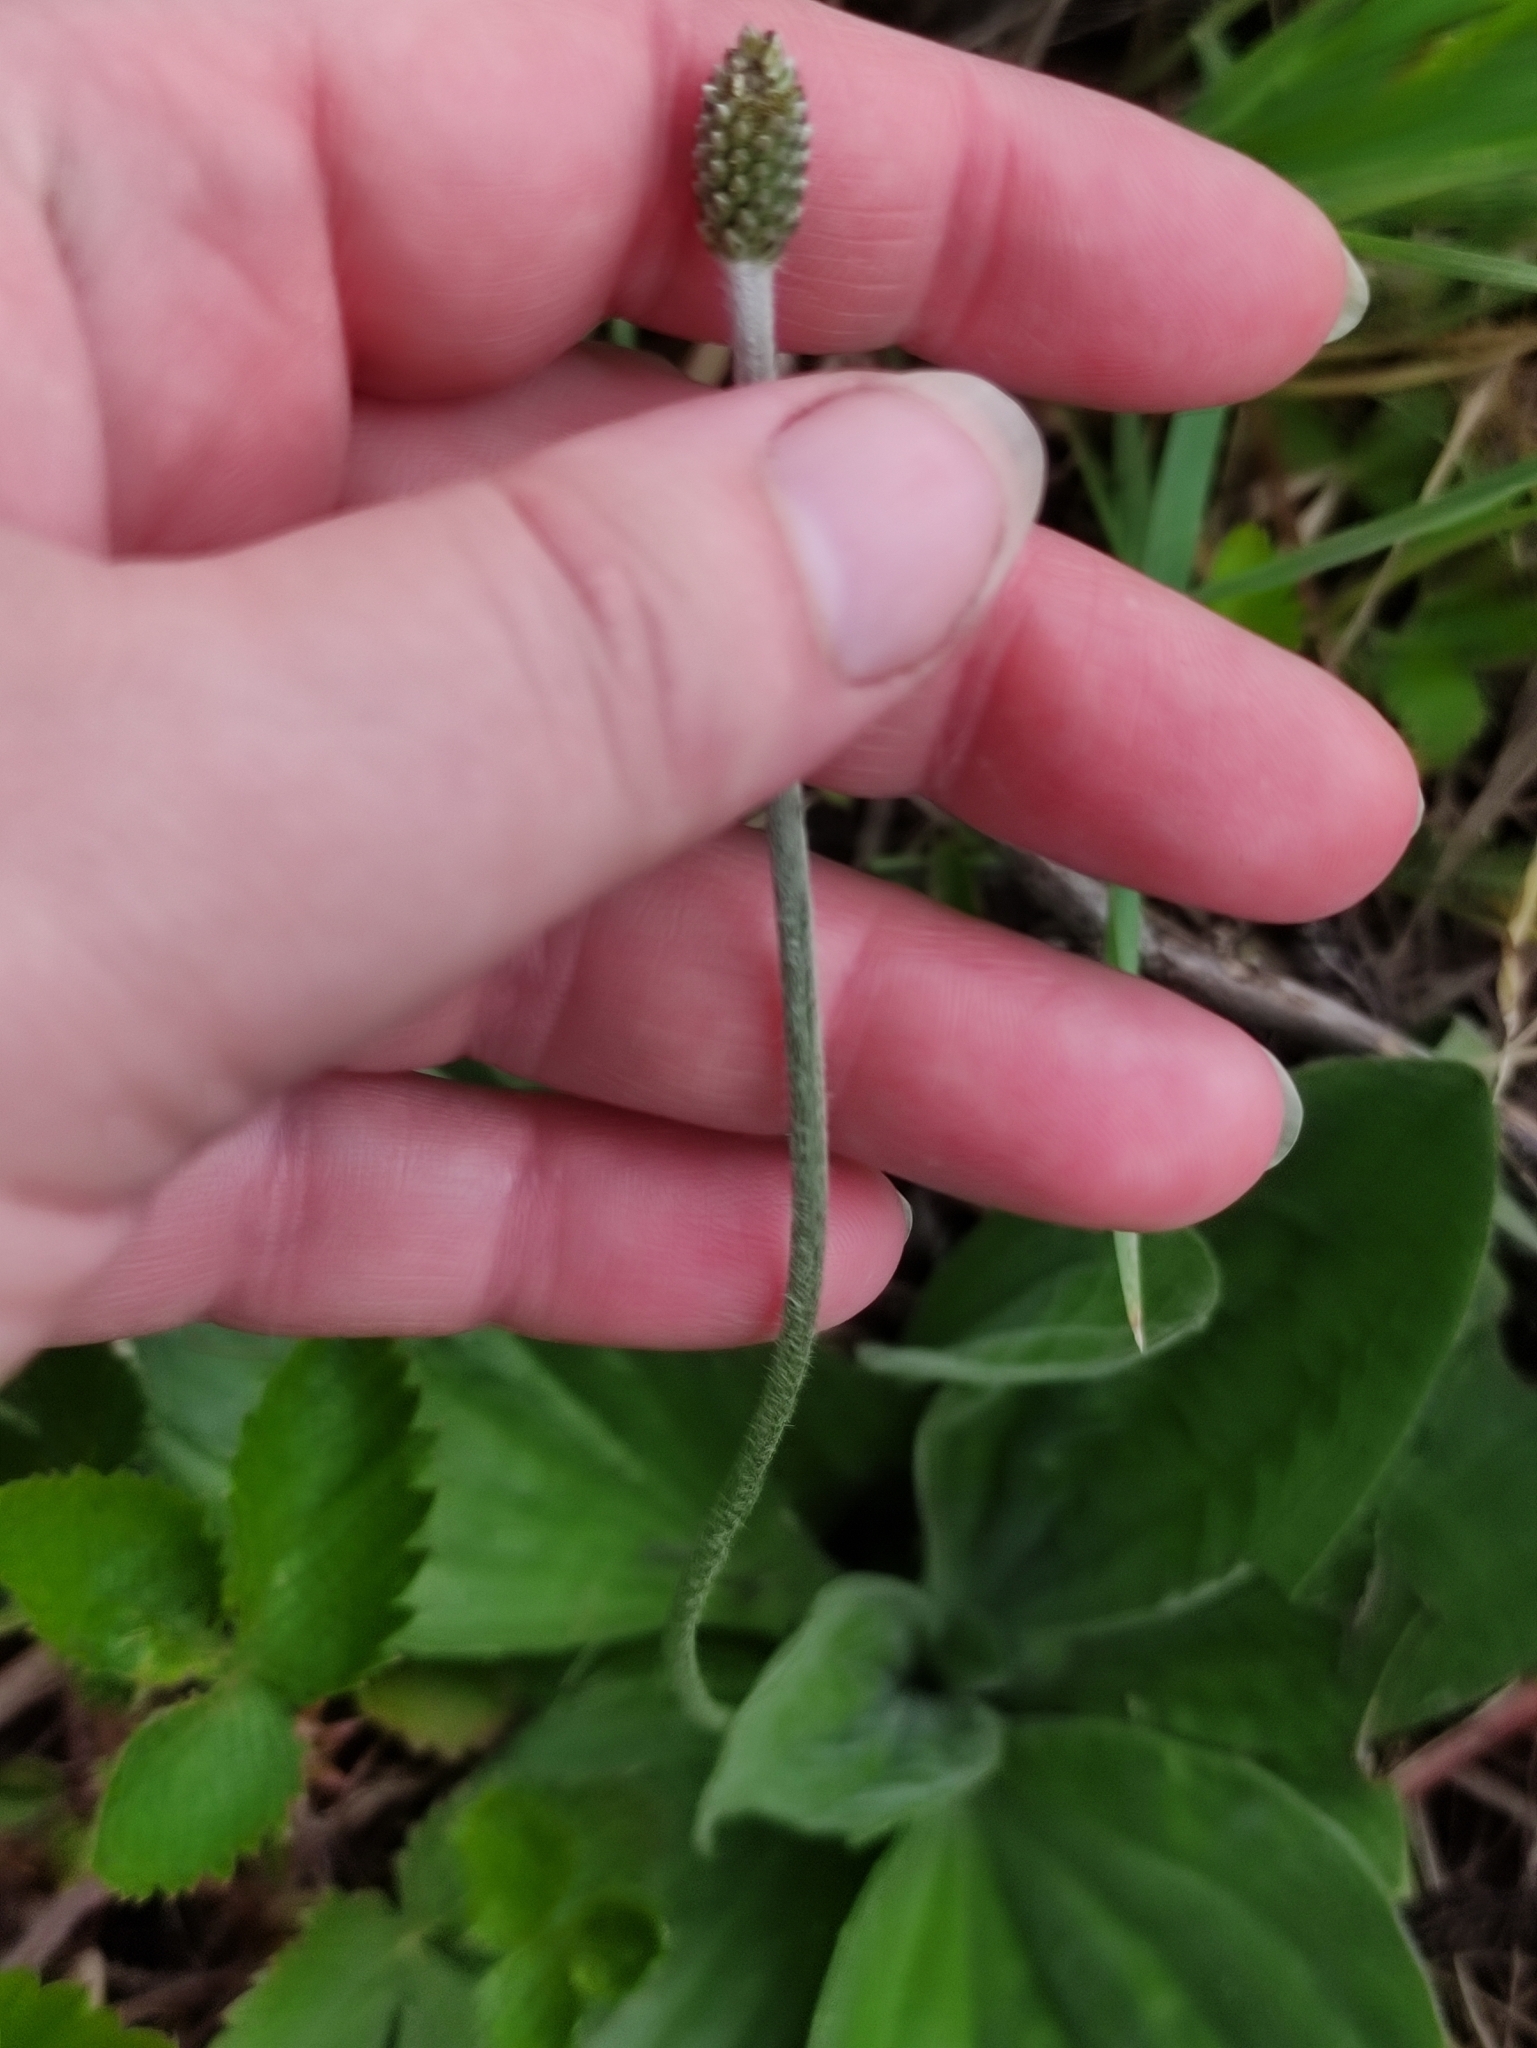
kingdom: Plantae
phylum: Tracheophyta
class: Magnoliopsida
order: Lamiales
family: Plantaginaceae
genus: Plantago
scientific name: Plantago media
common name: Hoary plantain
